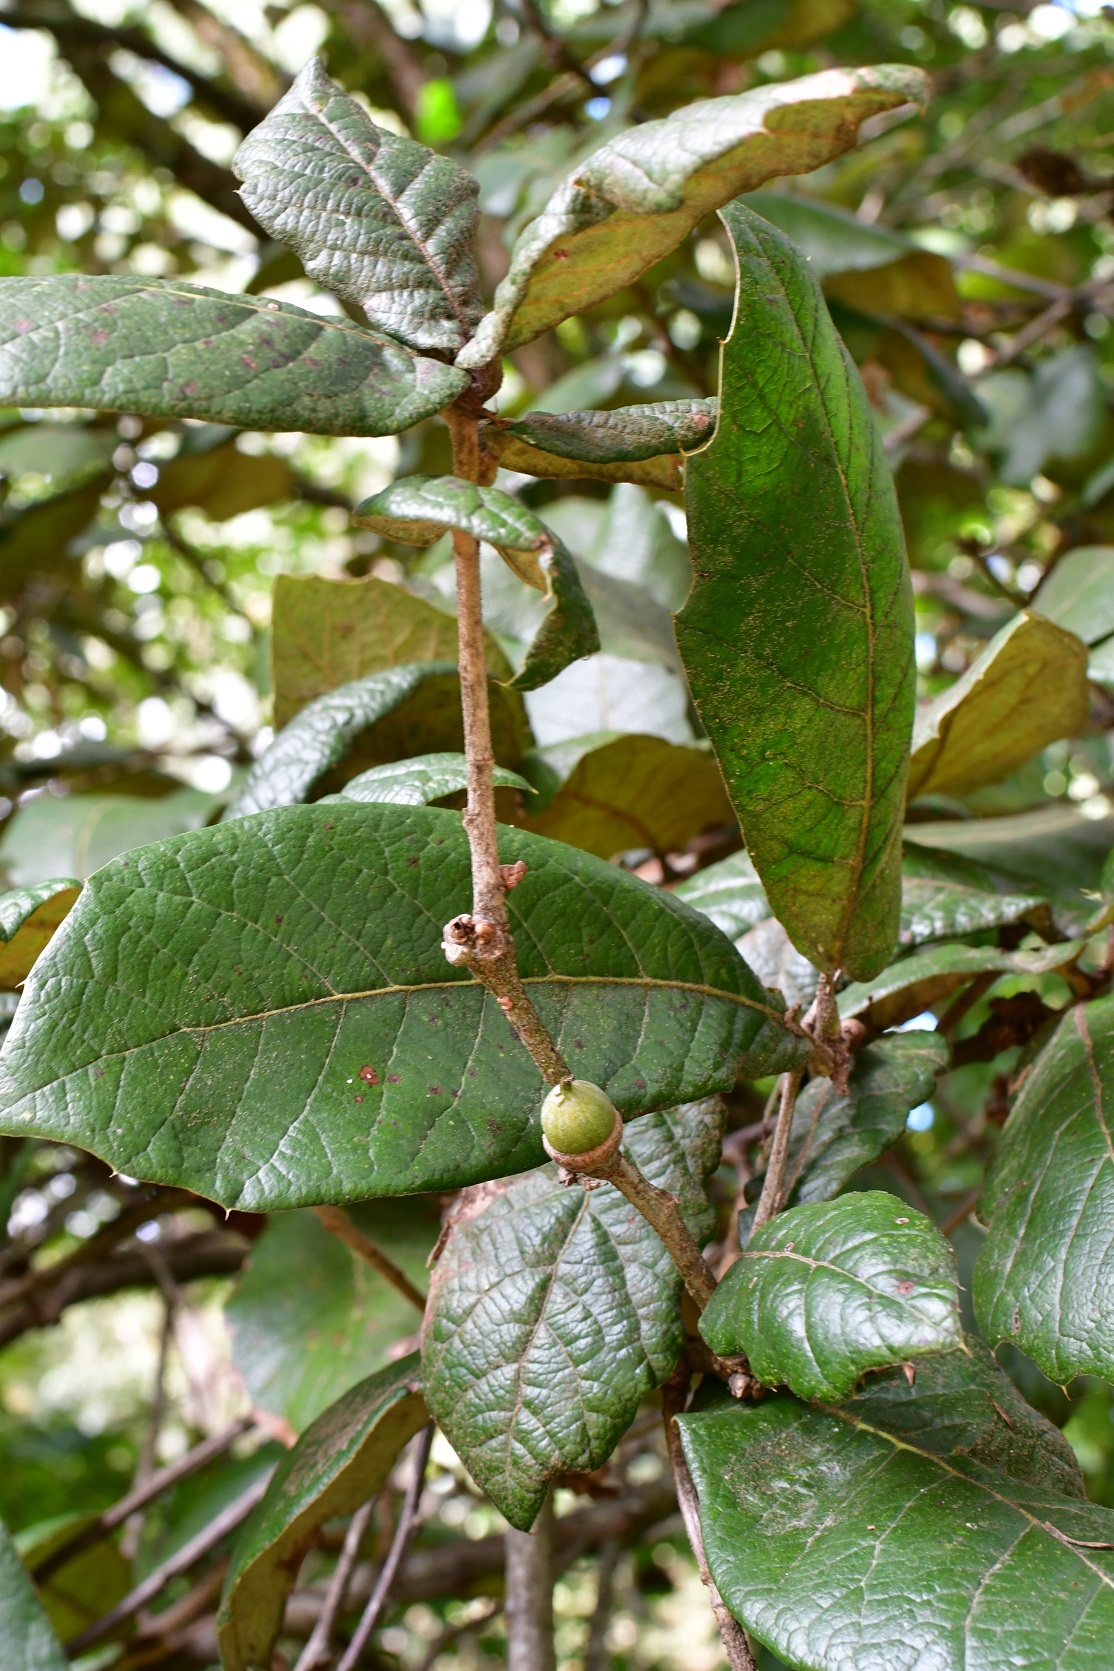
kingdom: Plantae
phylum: Tracheophyta
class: Magnoliopsida
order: Fagales
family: Fagaceae
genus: Quercus
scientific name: Quercus crassifolia
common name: Leather leaf mexican oak
